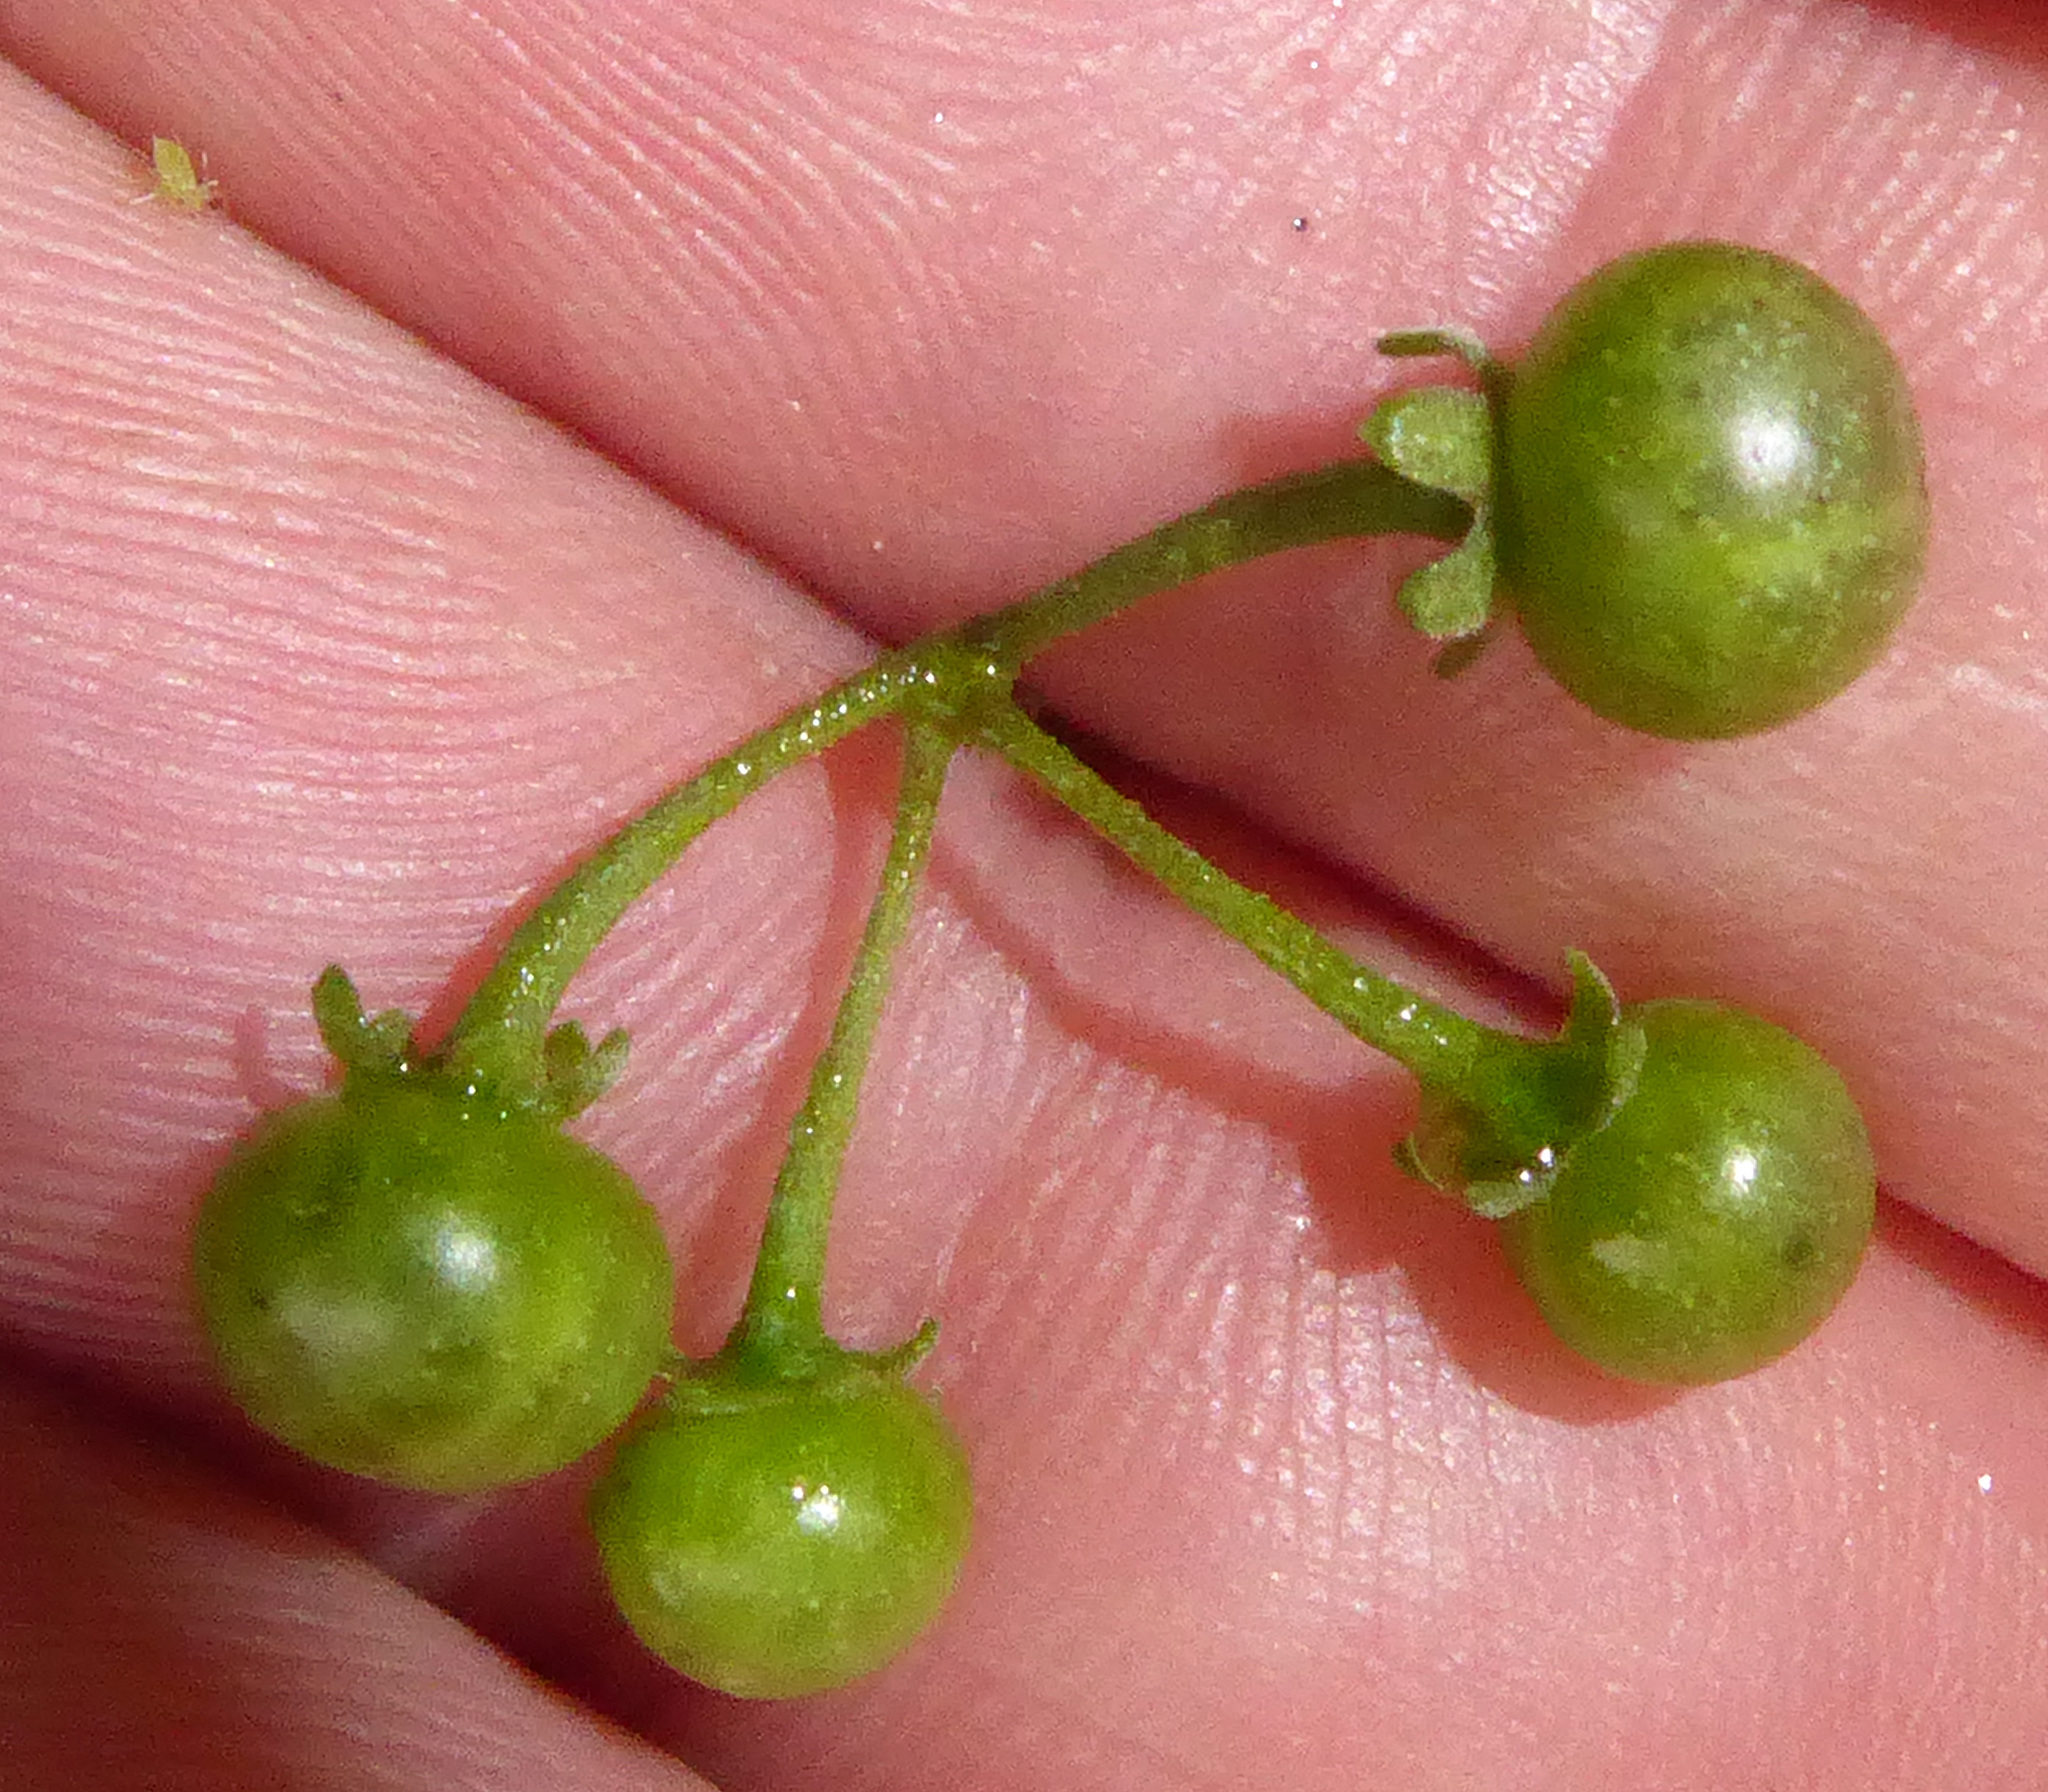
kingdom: Plantae
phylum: Tracheophyta
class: Magnoliopsida
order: Solanales
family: Solanaceae
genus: Solanum
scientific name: Solanum americanum
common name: American black nightshade
